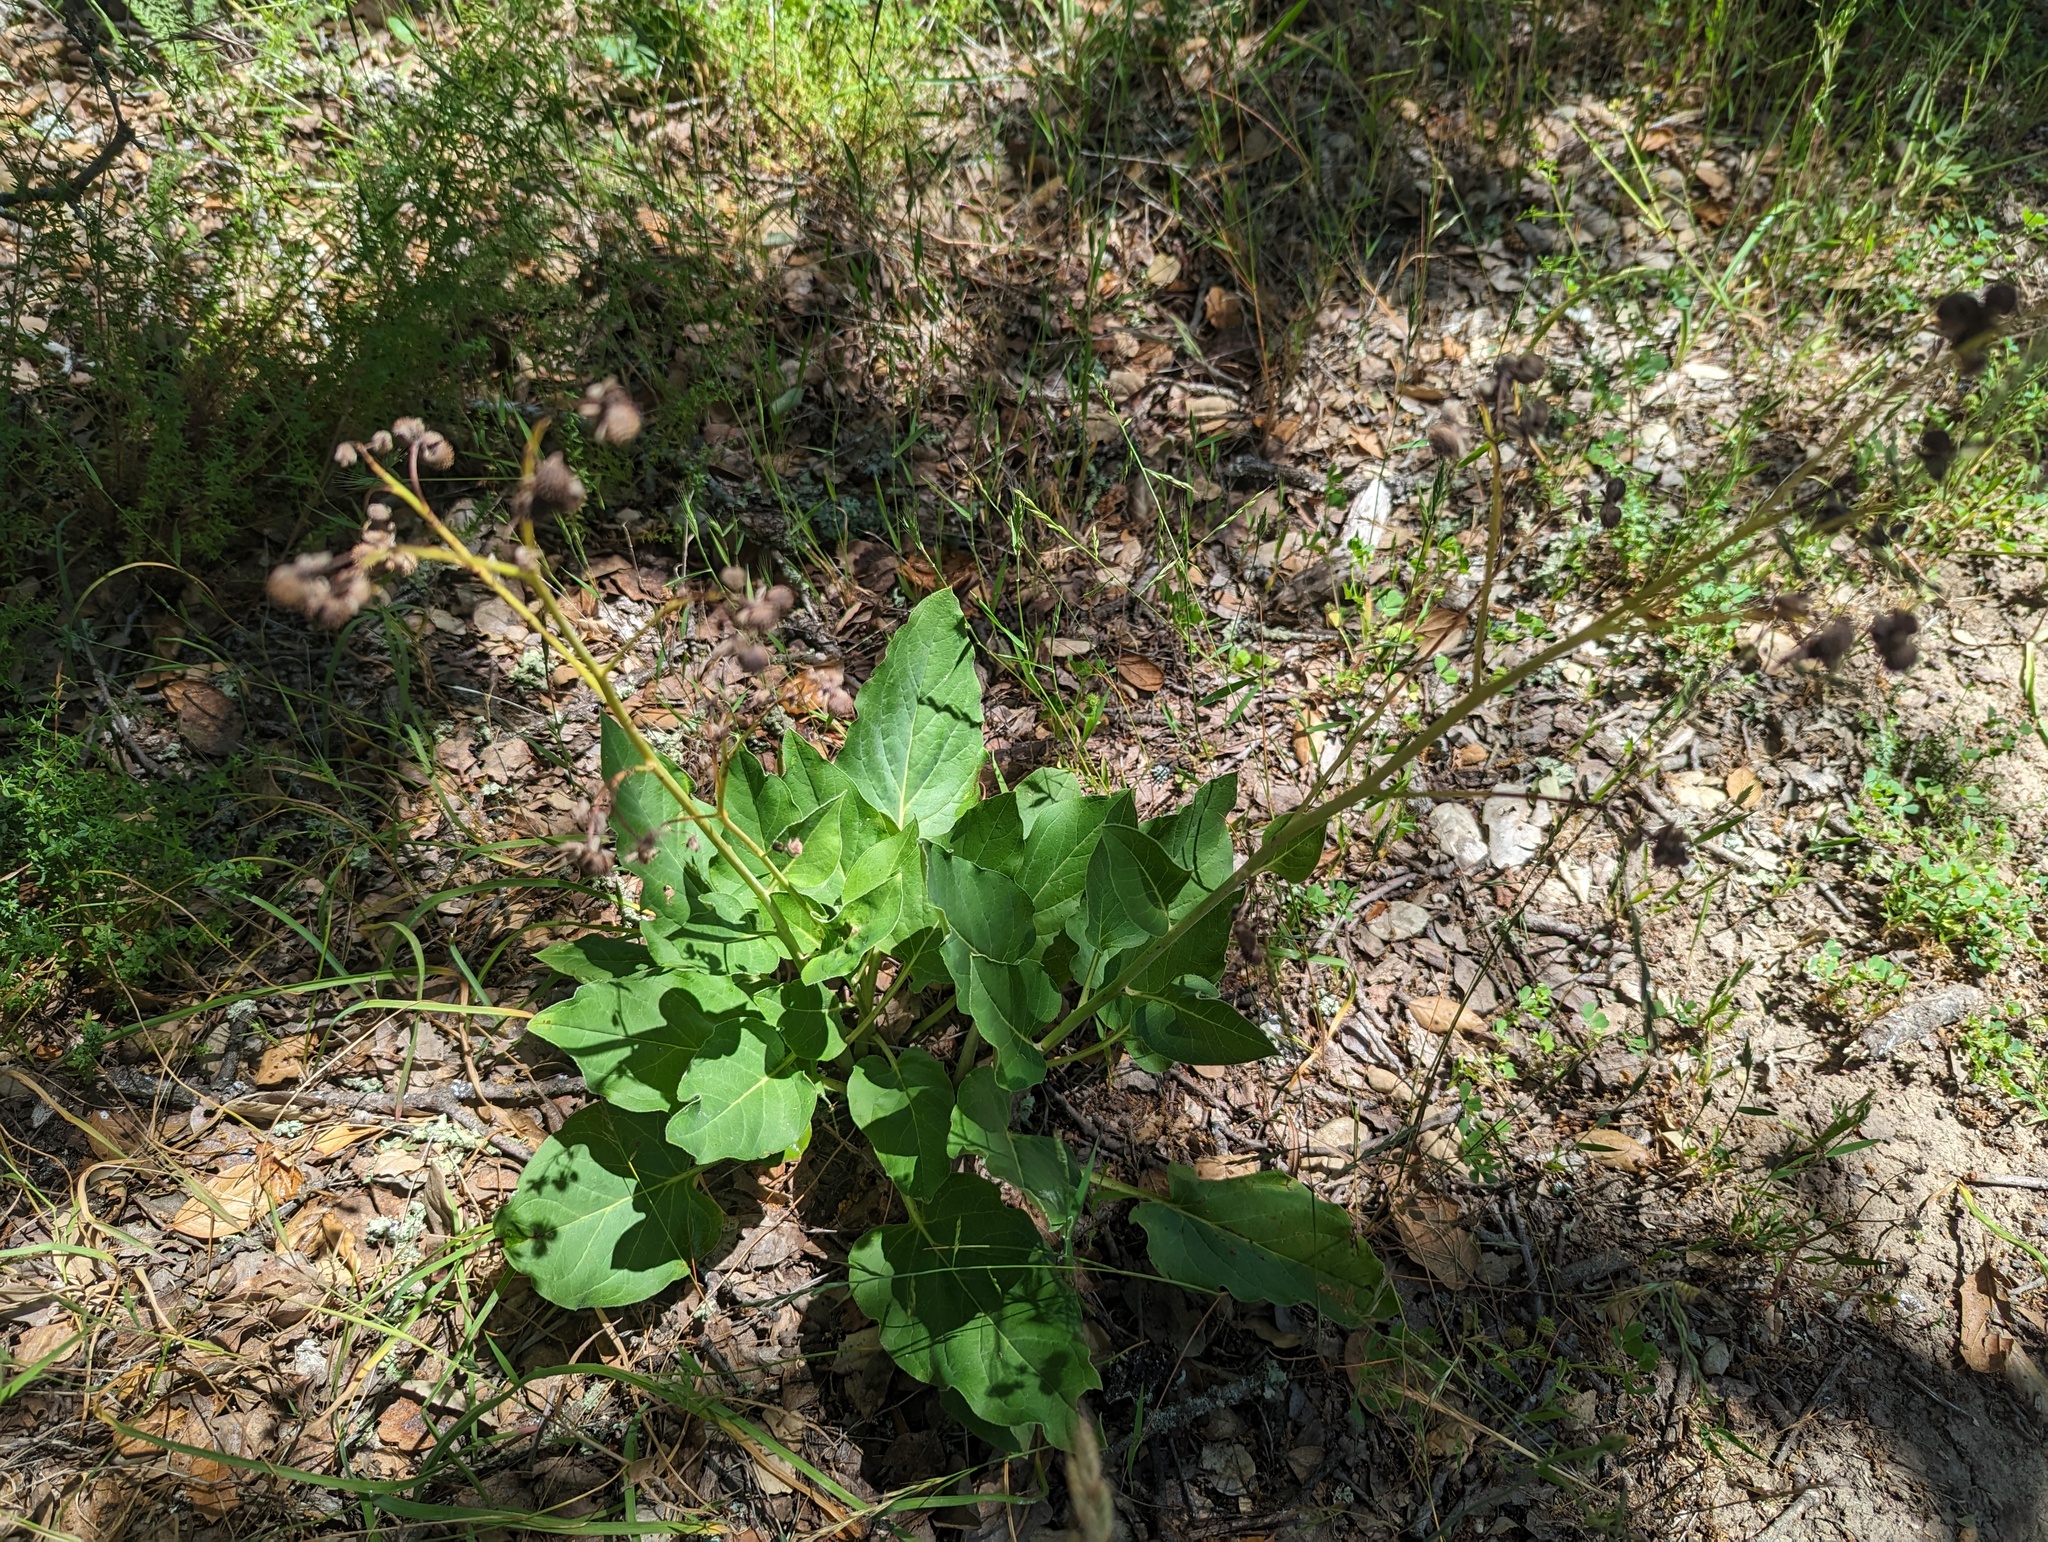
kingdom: Plantae
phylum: Tracheophyta
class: Magnoliopsida
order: Boraginales
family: Boraginaceae
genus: Adelinia
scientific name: Adelinia grande
